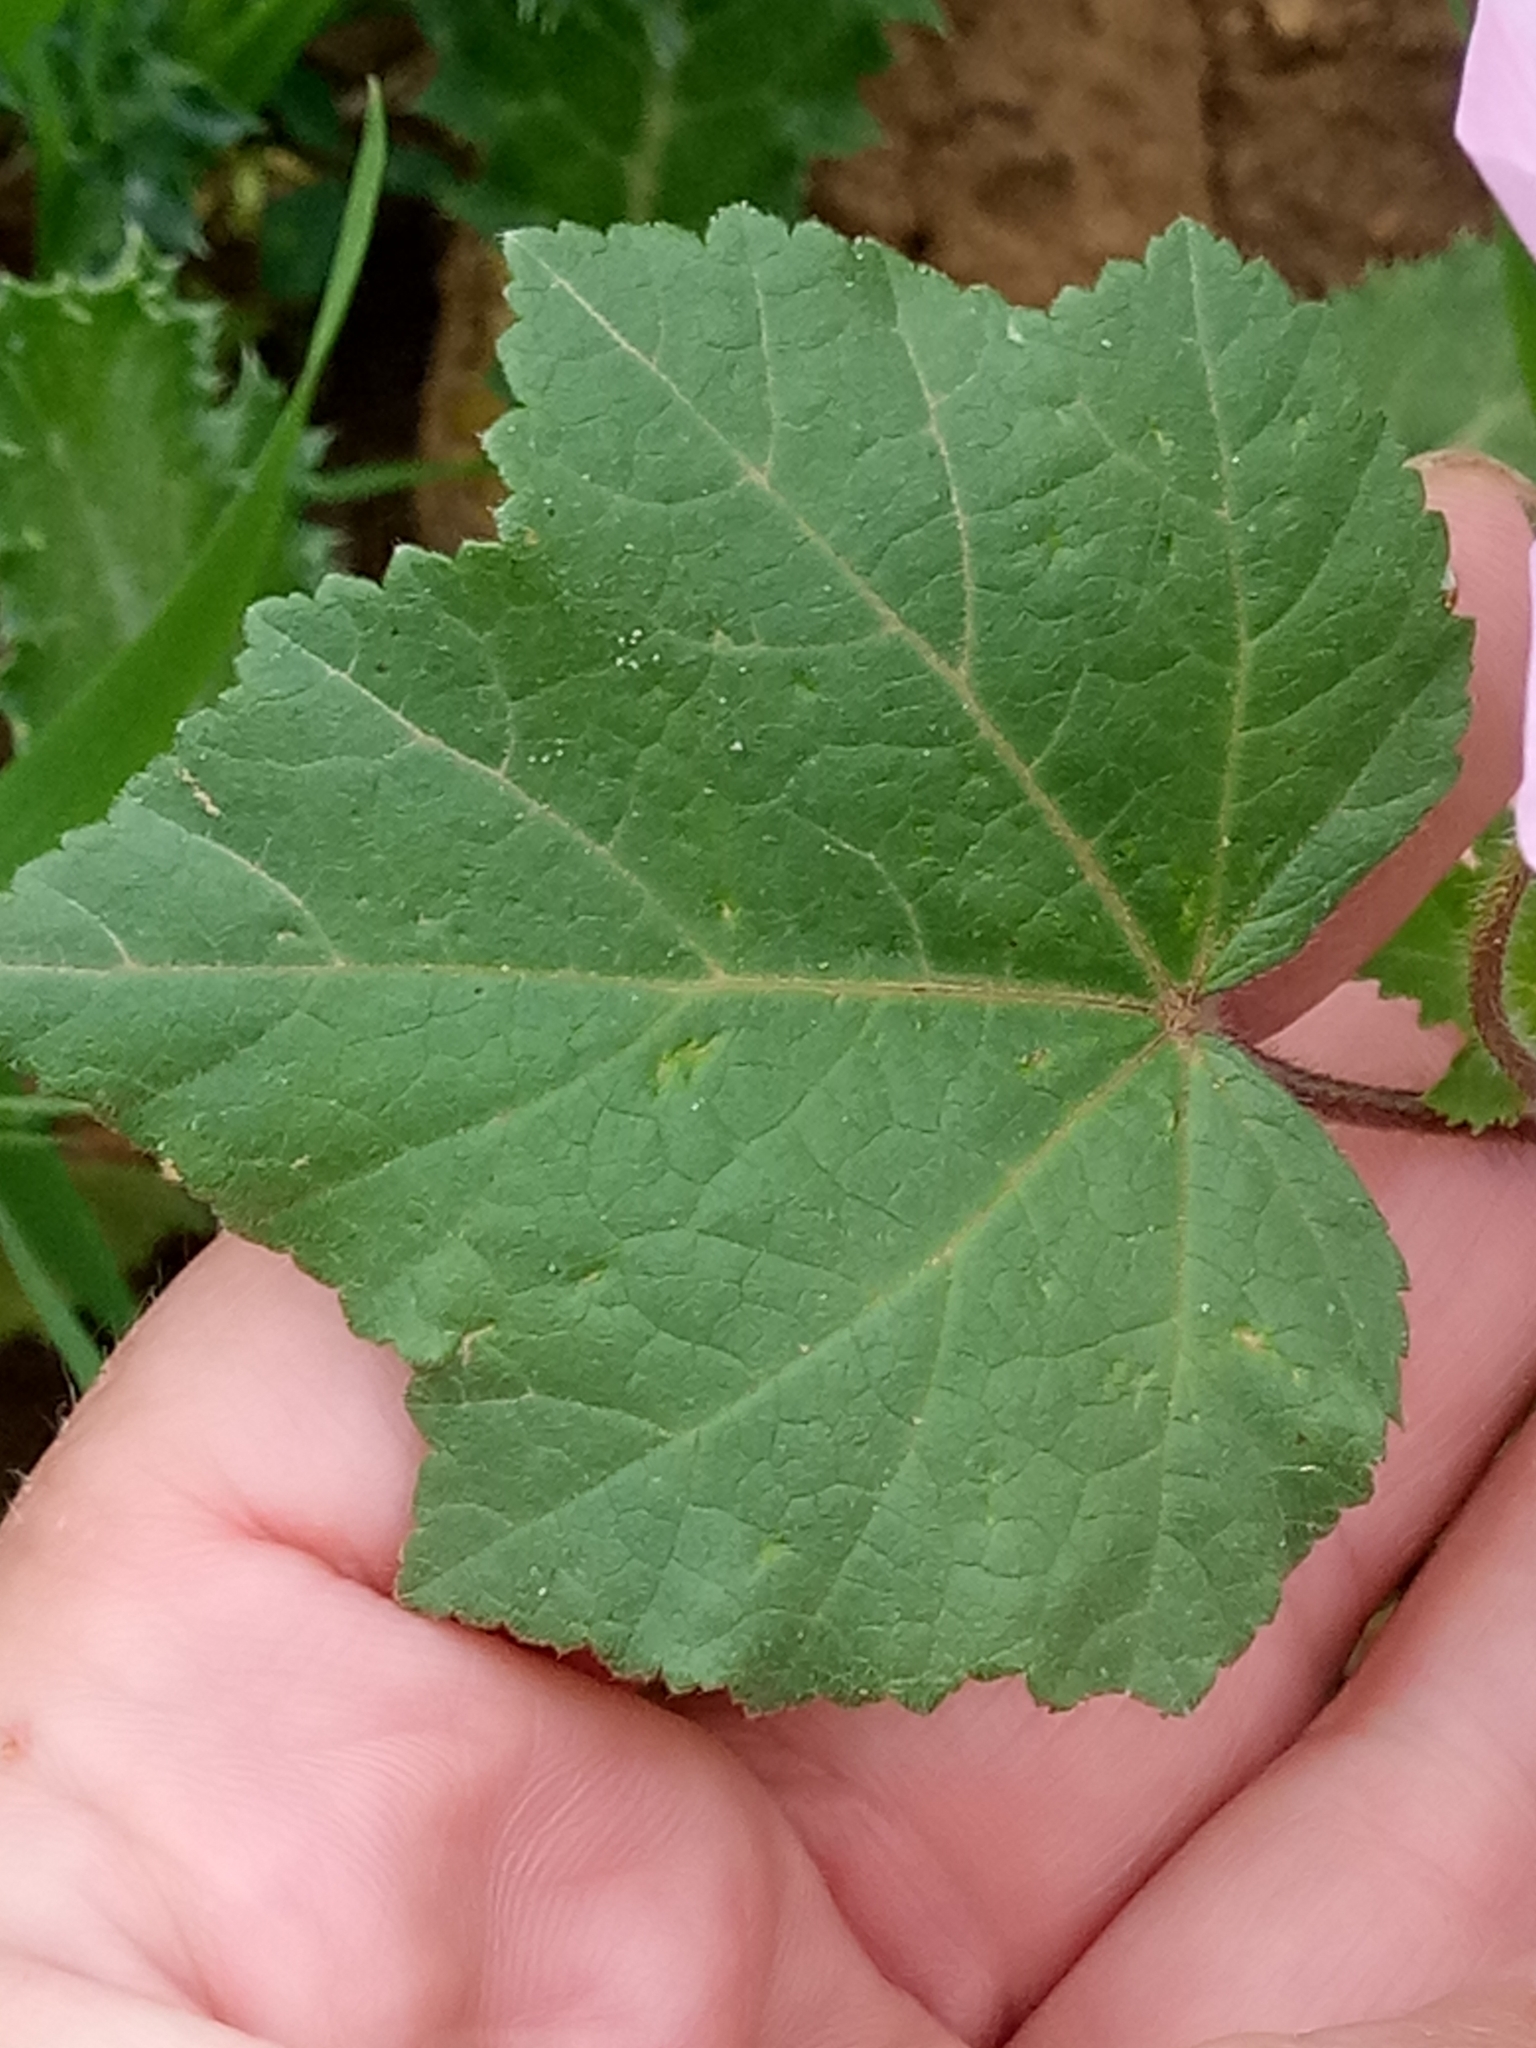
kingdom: Plantae
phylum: Tracheophyta
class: Magnoliopsida
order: Malvales
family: Malvaceae
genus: Malva
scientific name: Malva trimestris
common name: Royal mallow
